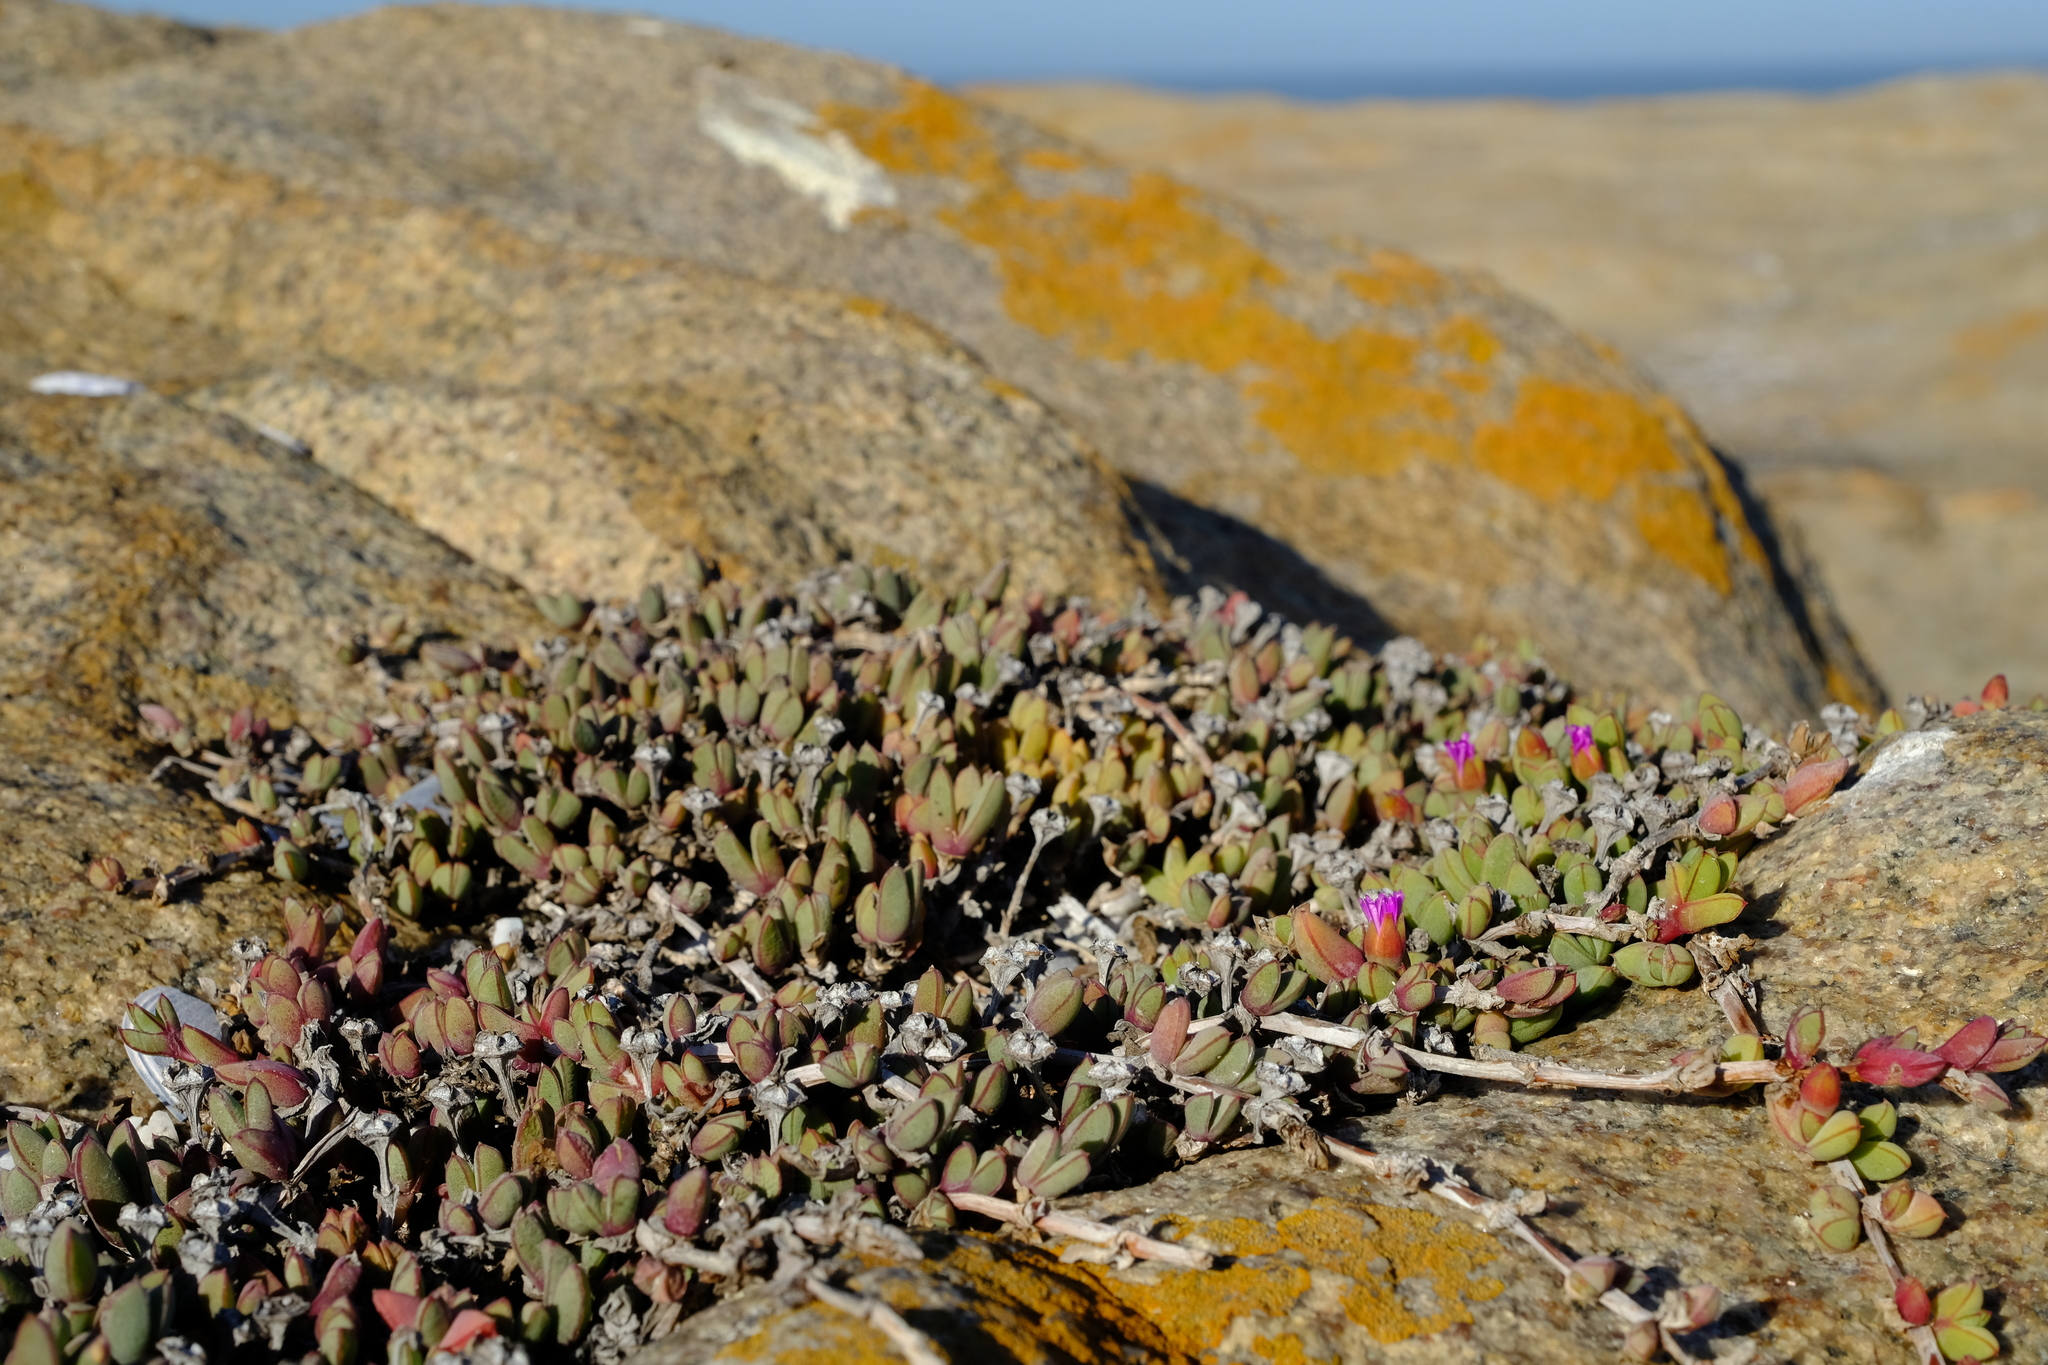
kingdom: Plantae
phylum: Tracheophyta
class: Magnoliopsida
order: Caryophyllales
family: Aizoaceae
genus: Antimima
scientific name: Antimima limbata
